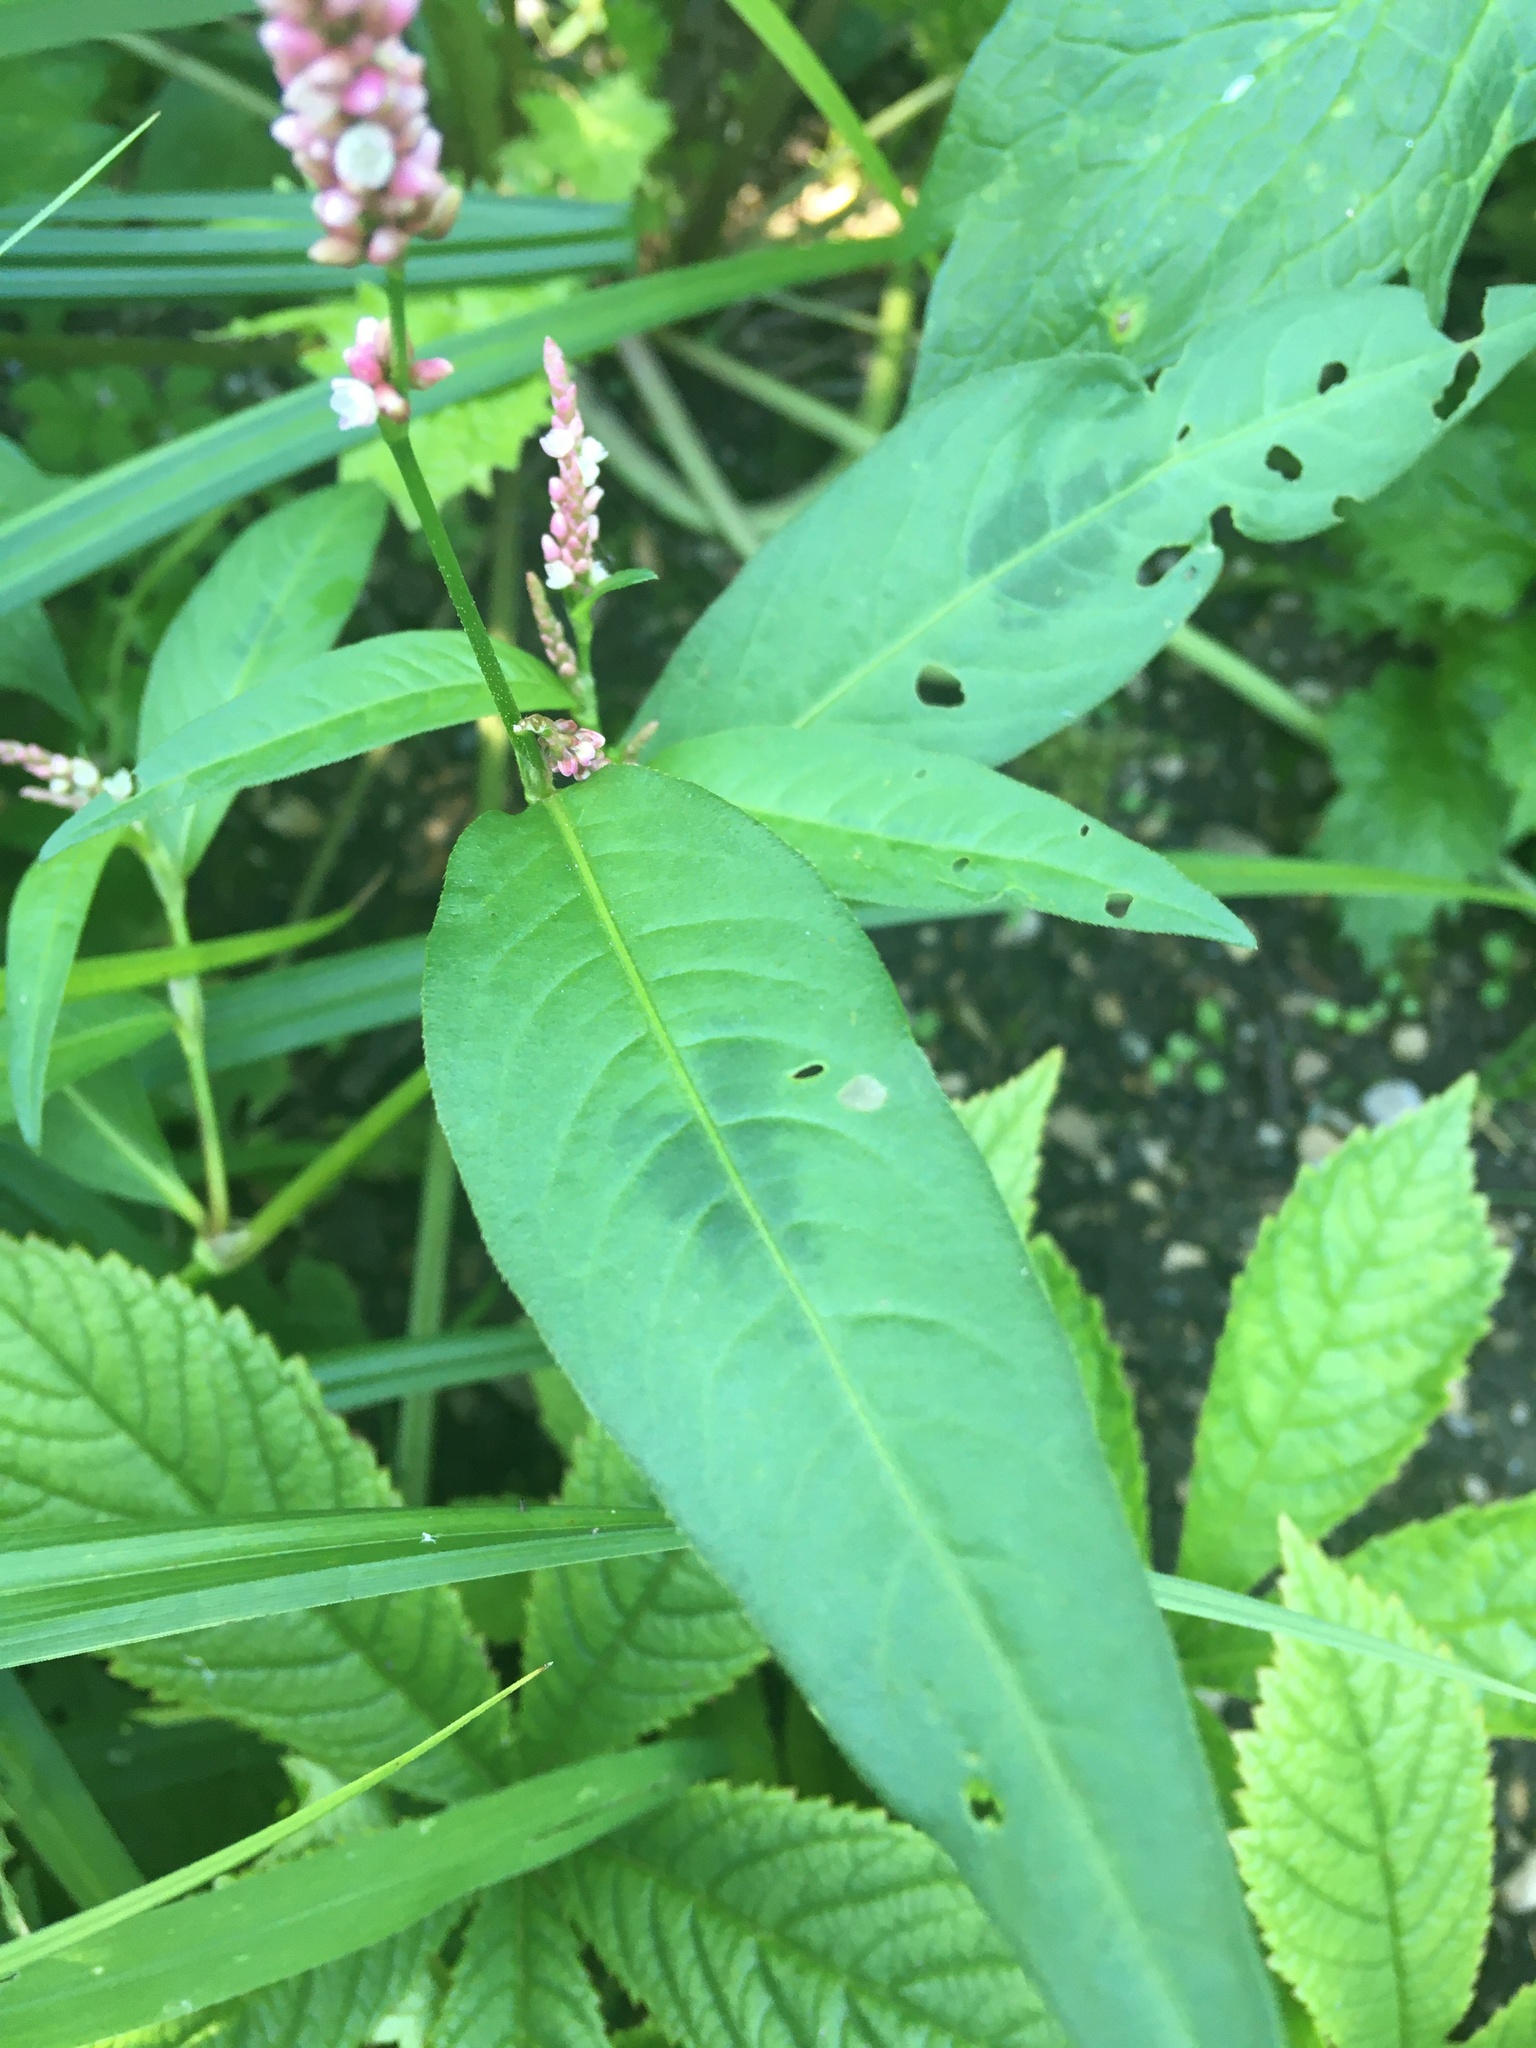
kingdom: Plantae
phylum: Tracheophyta
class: Magnoliopsida
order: Caryophyllales
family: Polygonaceae
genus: Persicaria
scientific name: Persicaria maculosa
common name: Redshank
